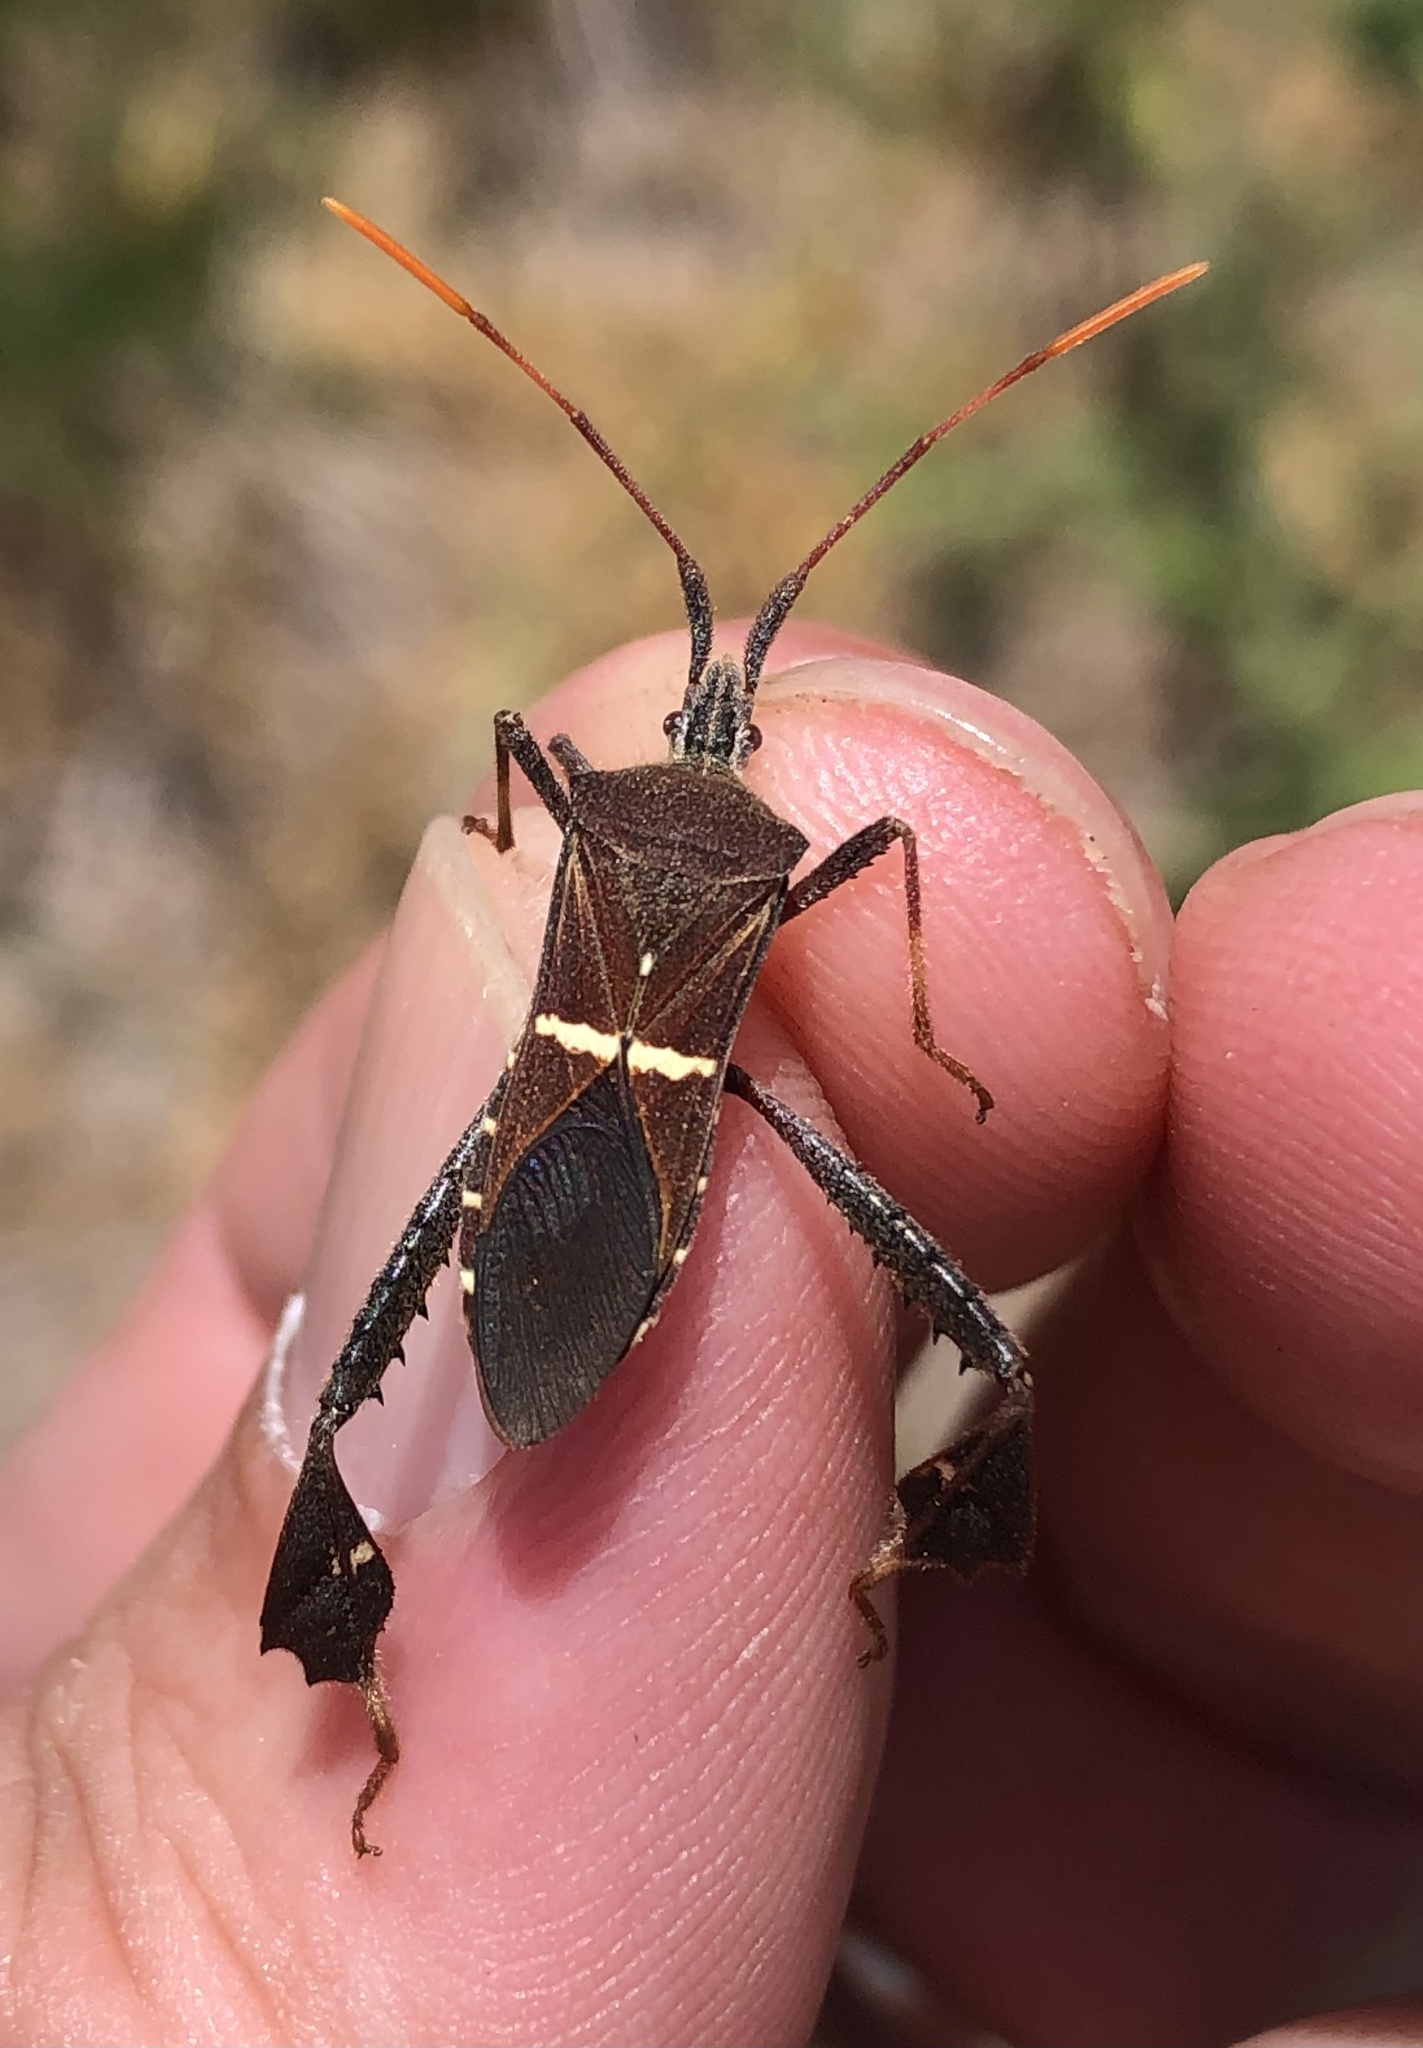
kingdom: Animalia
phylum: Arthropoda
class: Insecta
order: Hemiptera
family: Coreidae
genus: Leptoglossus
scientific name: Leptoglossus phyllopus
